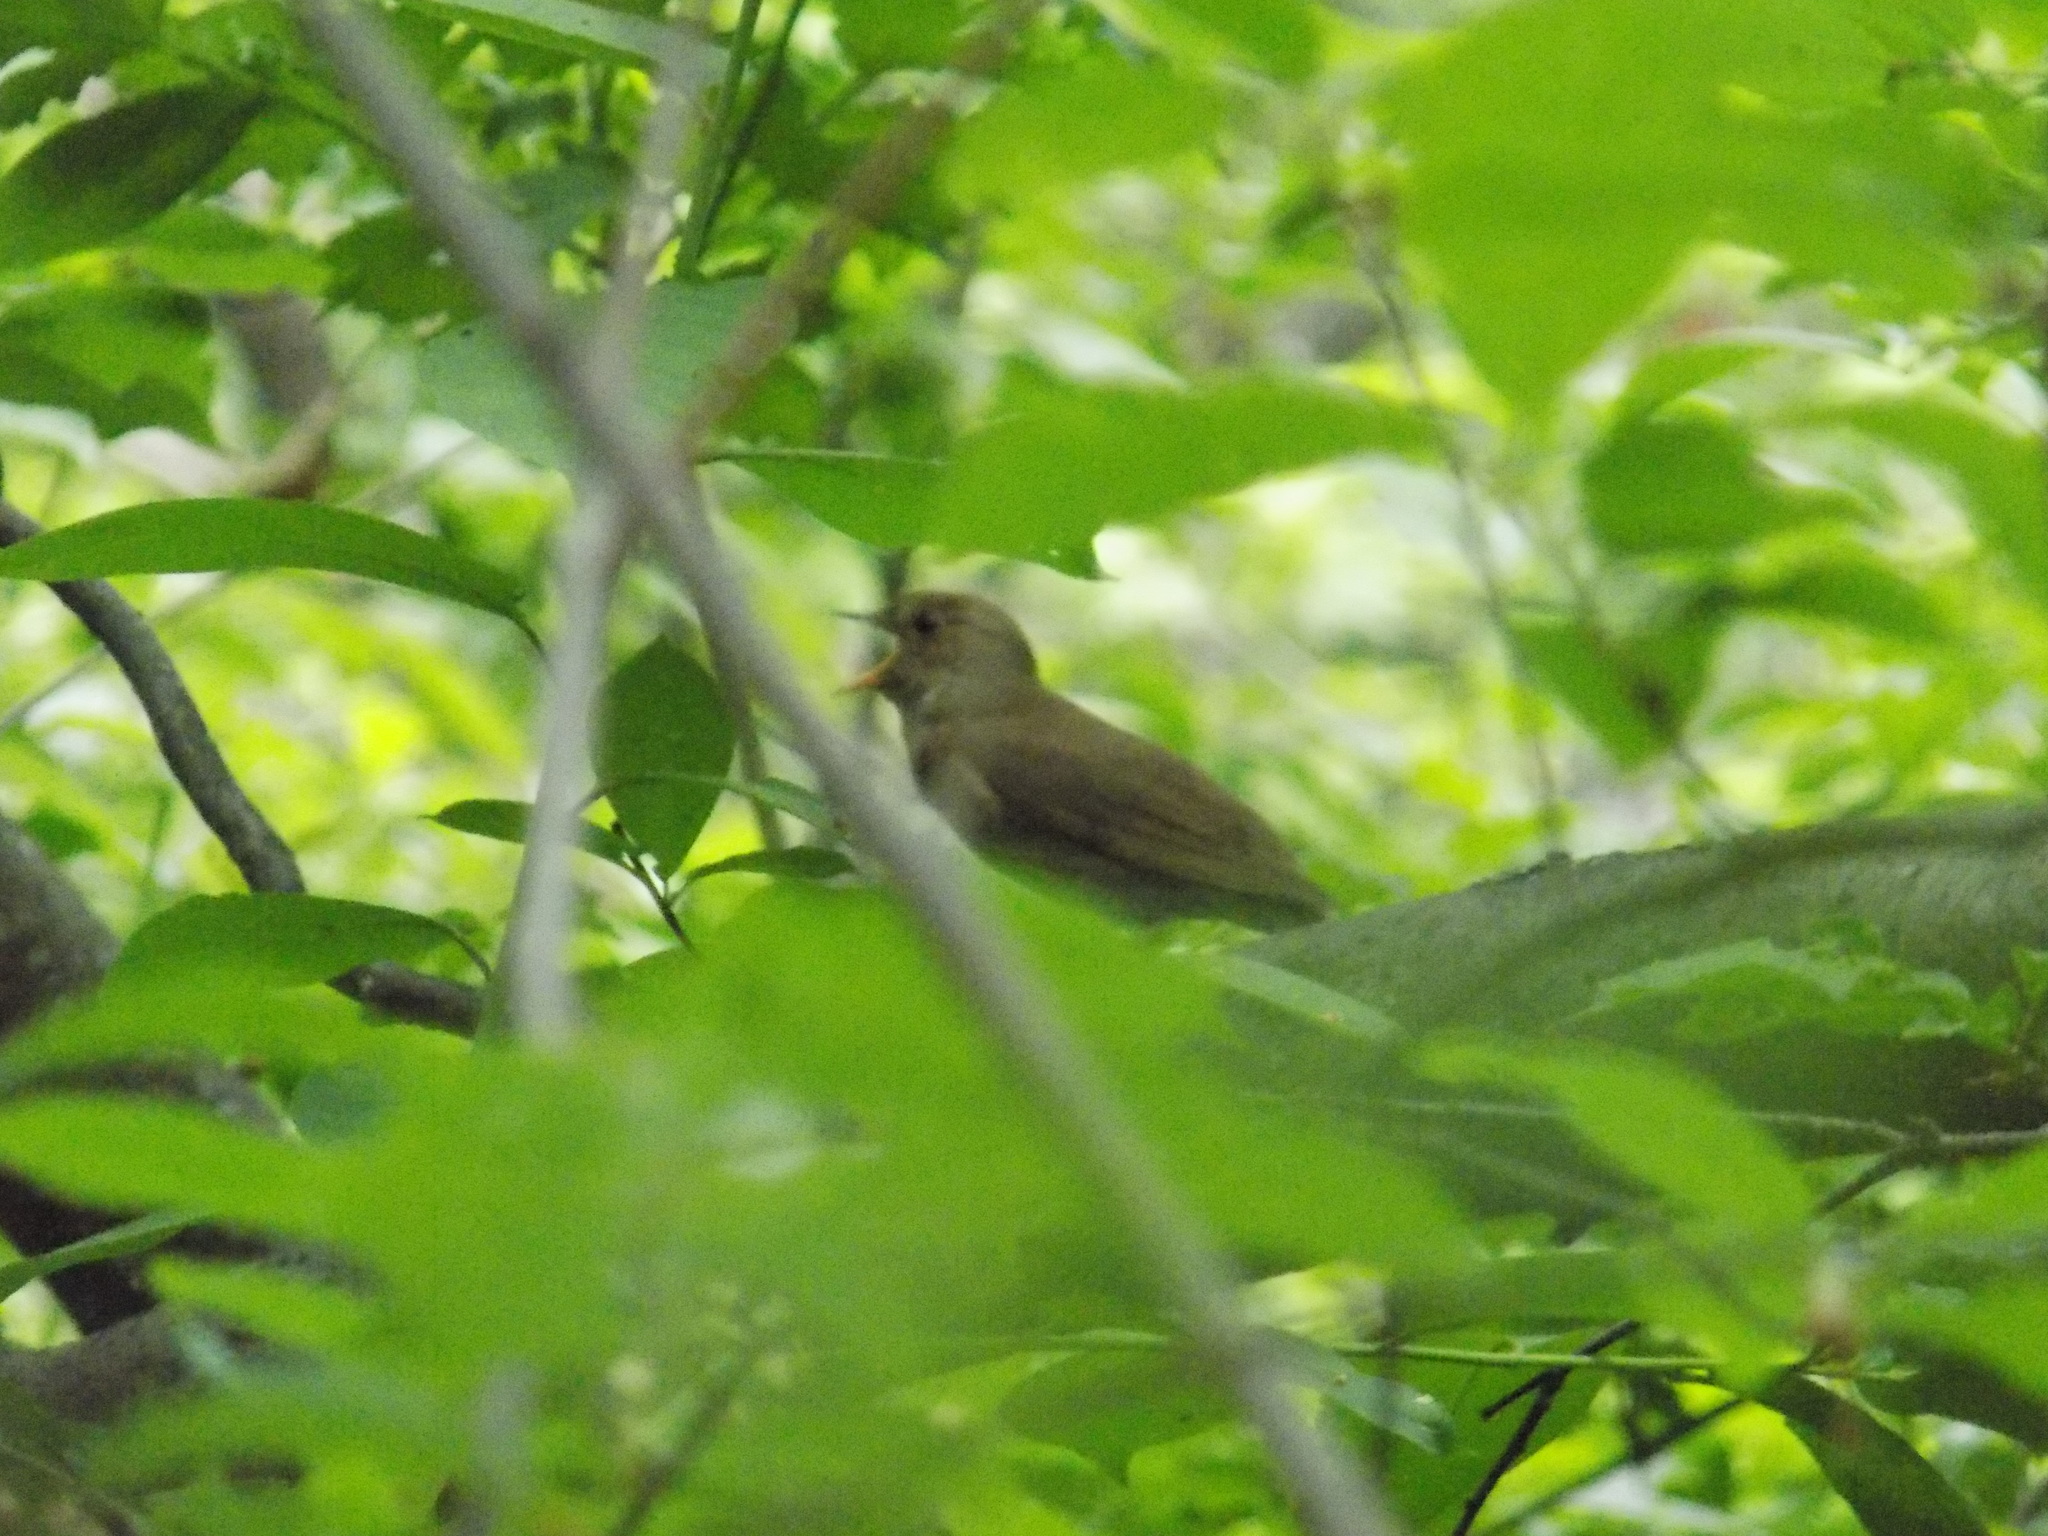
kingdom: Animalia
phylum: Chordata
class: Aves
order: Passeriformes
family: Muscicapidae
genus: Luscinia
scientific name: Luscinia luscinia
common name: Thrush nightingale
